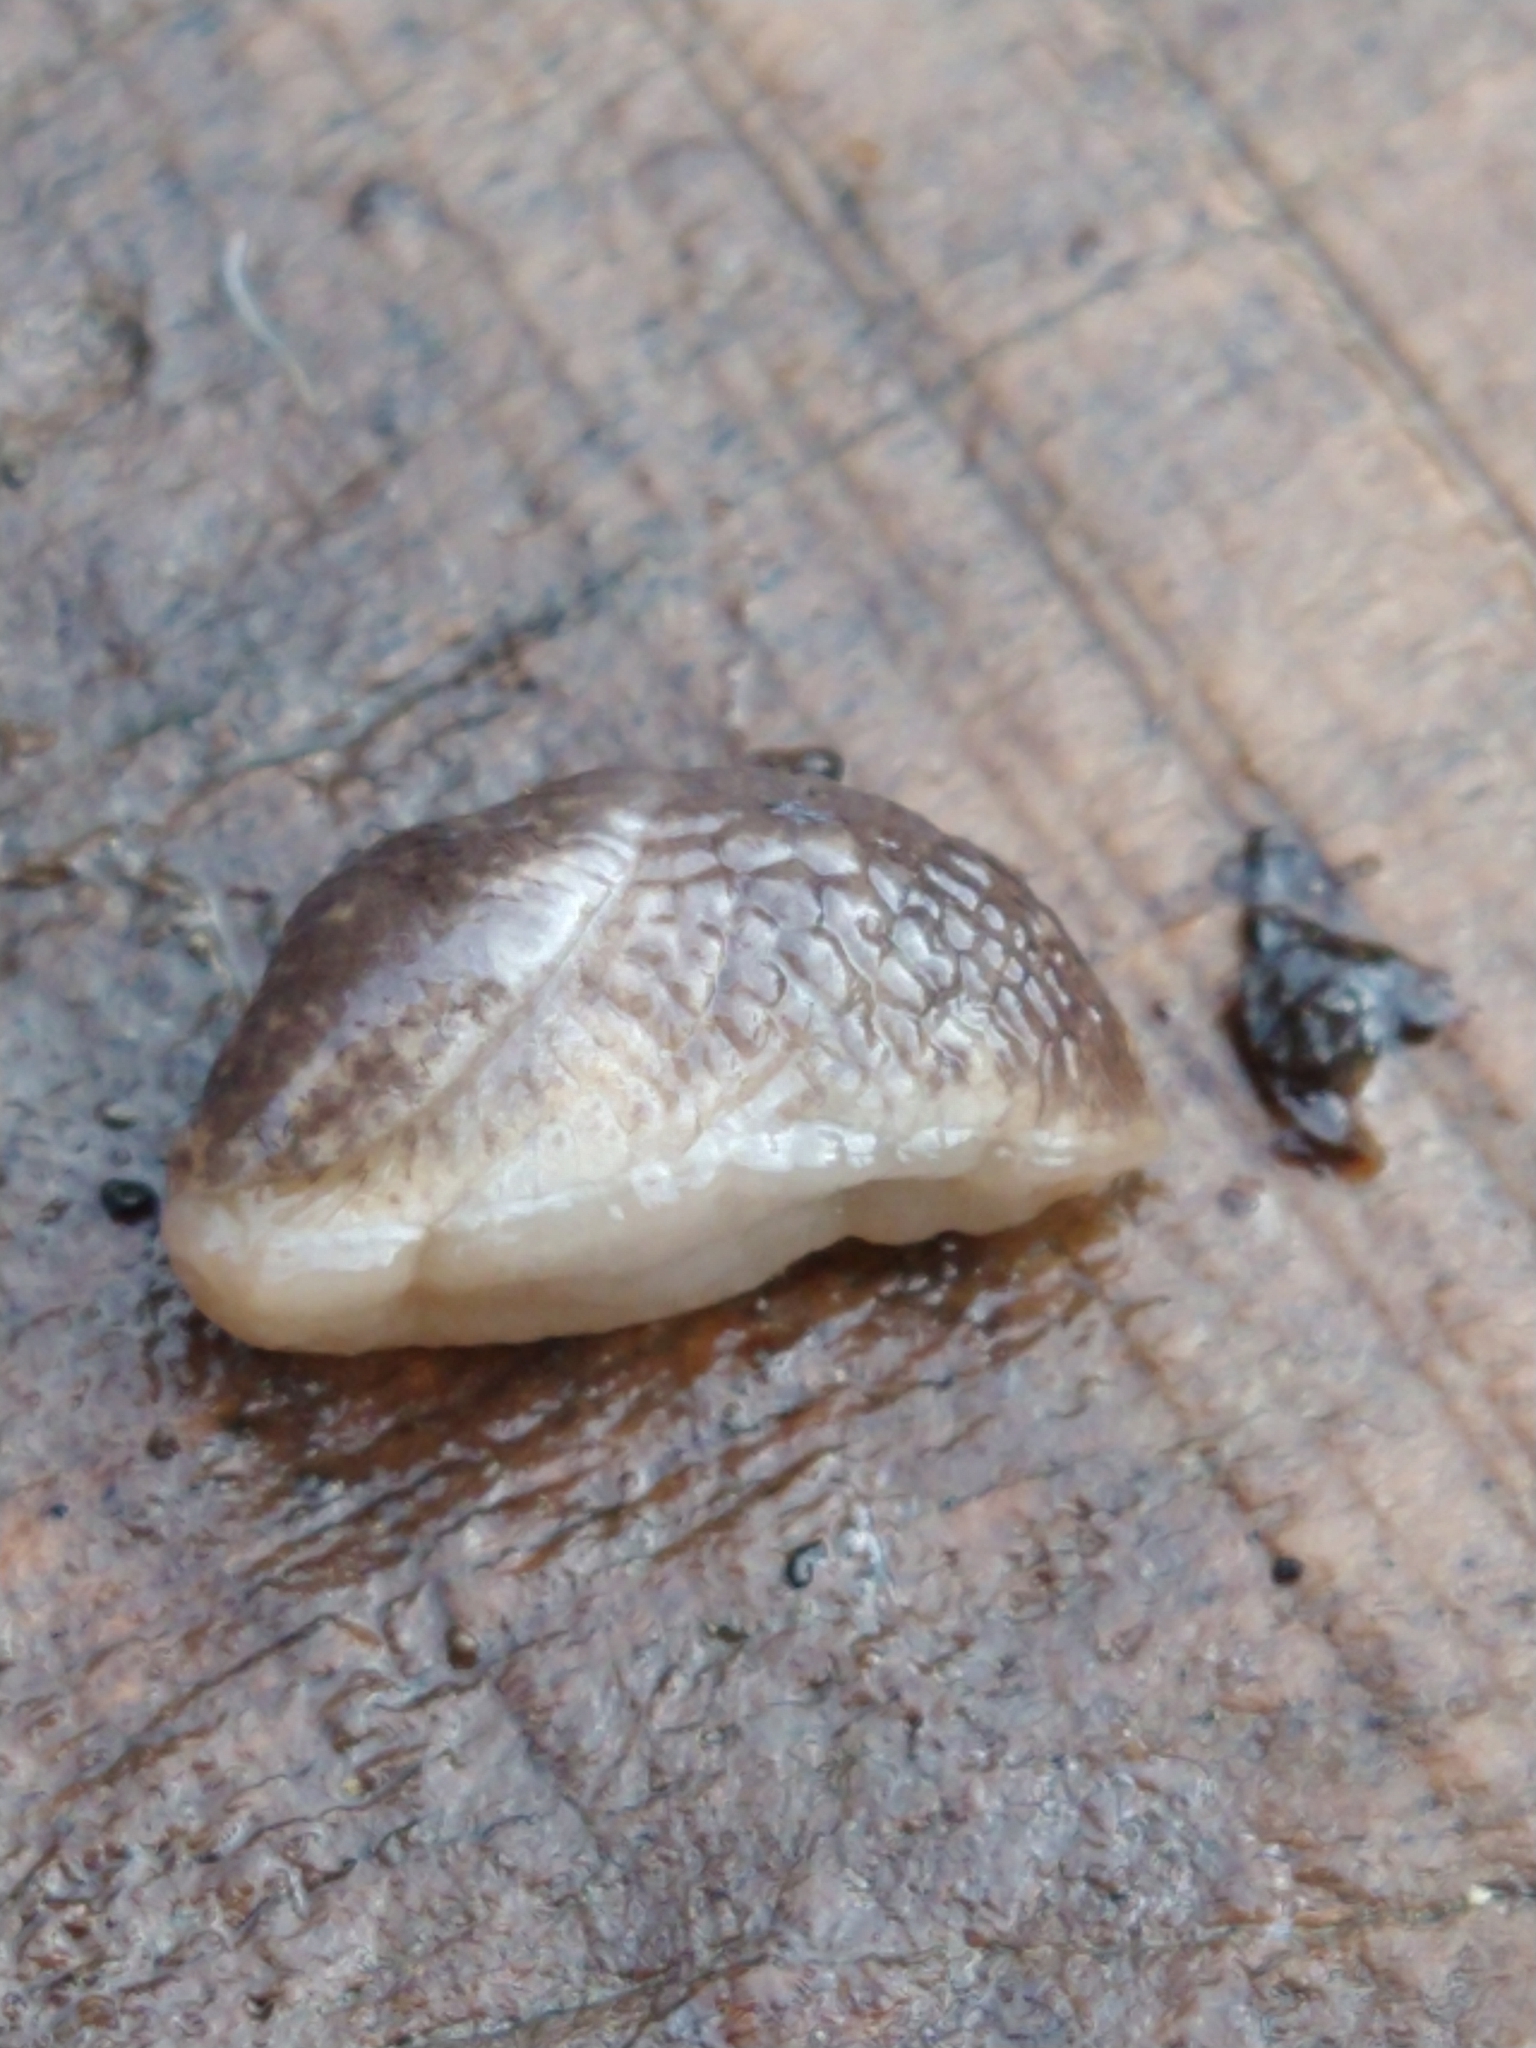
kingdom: Animalia
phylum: Mollusca
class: Gastropoda
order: Stylommatophora
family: Agriolimacidae
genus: Deroceras
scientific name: Deroceras
